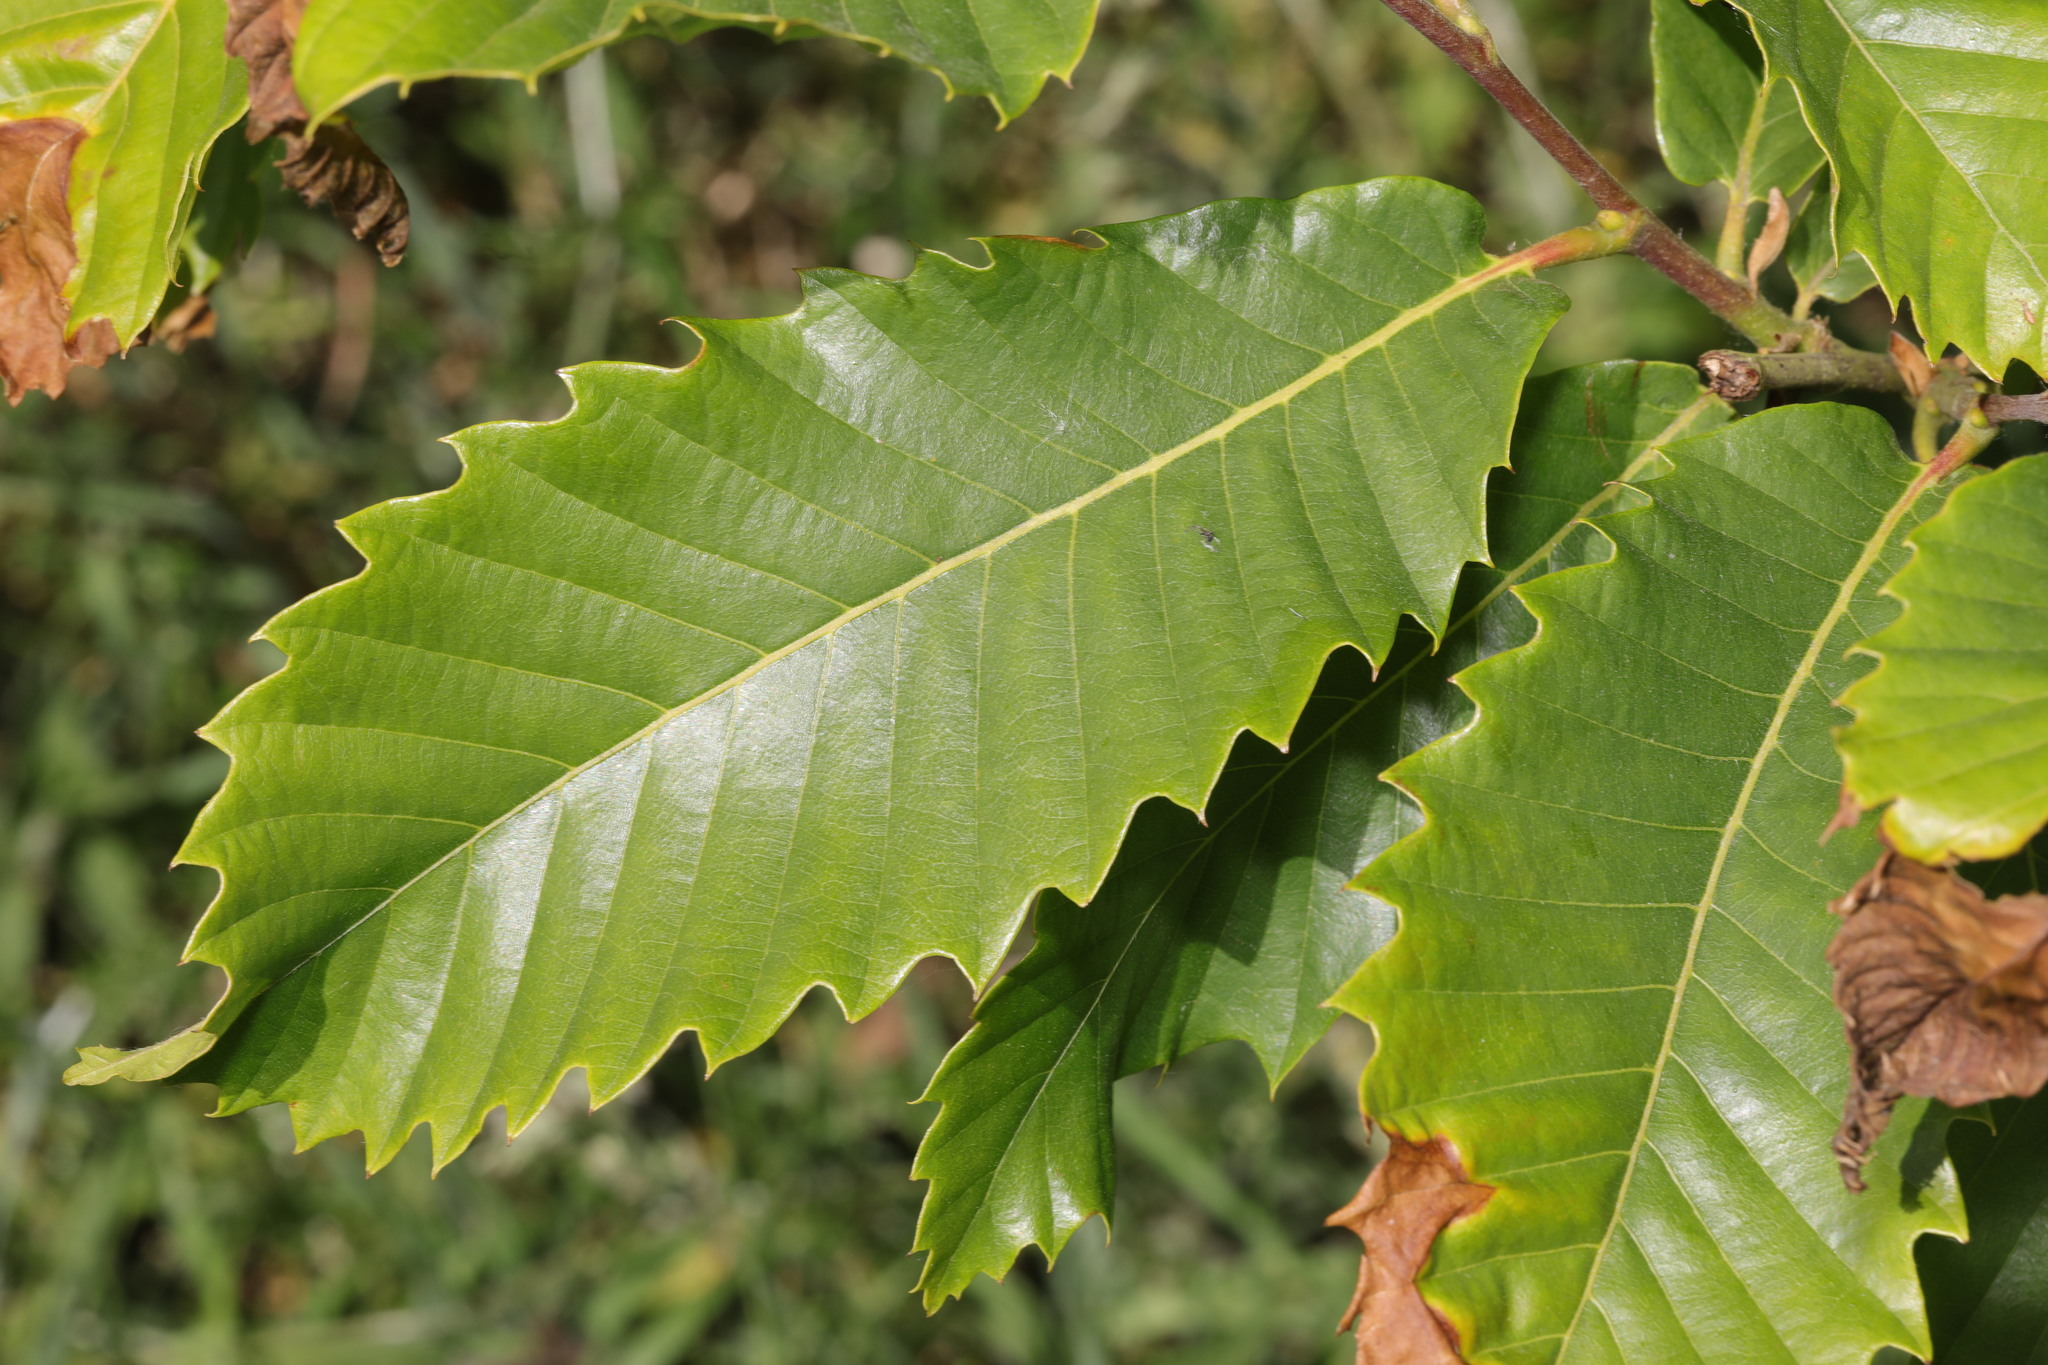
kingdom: Plantae
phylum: Tracheophyta
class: Magnoliopsida
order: Fagales
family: Fagaceae
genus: Castanea
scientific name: Castanea sativa
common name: Sweet chestnut
